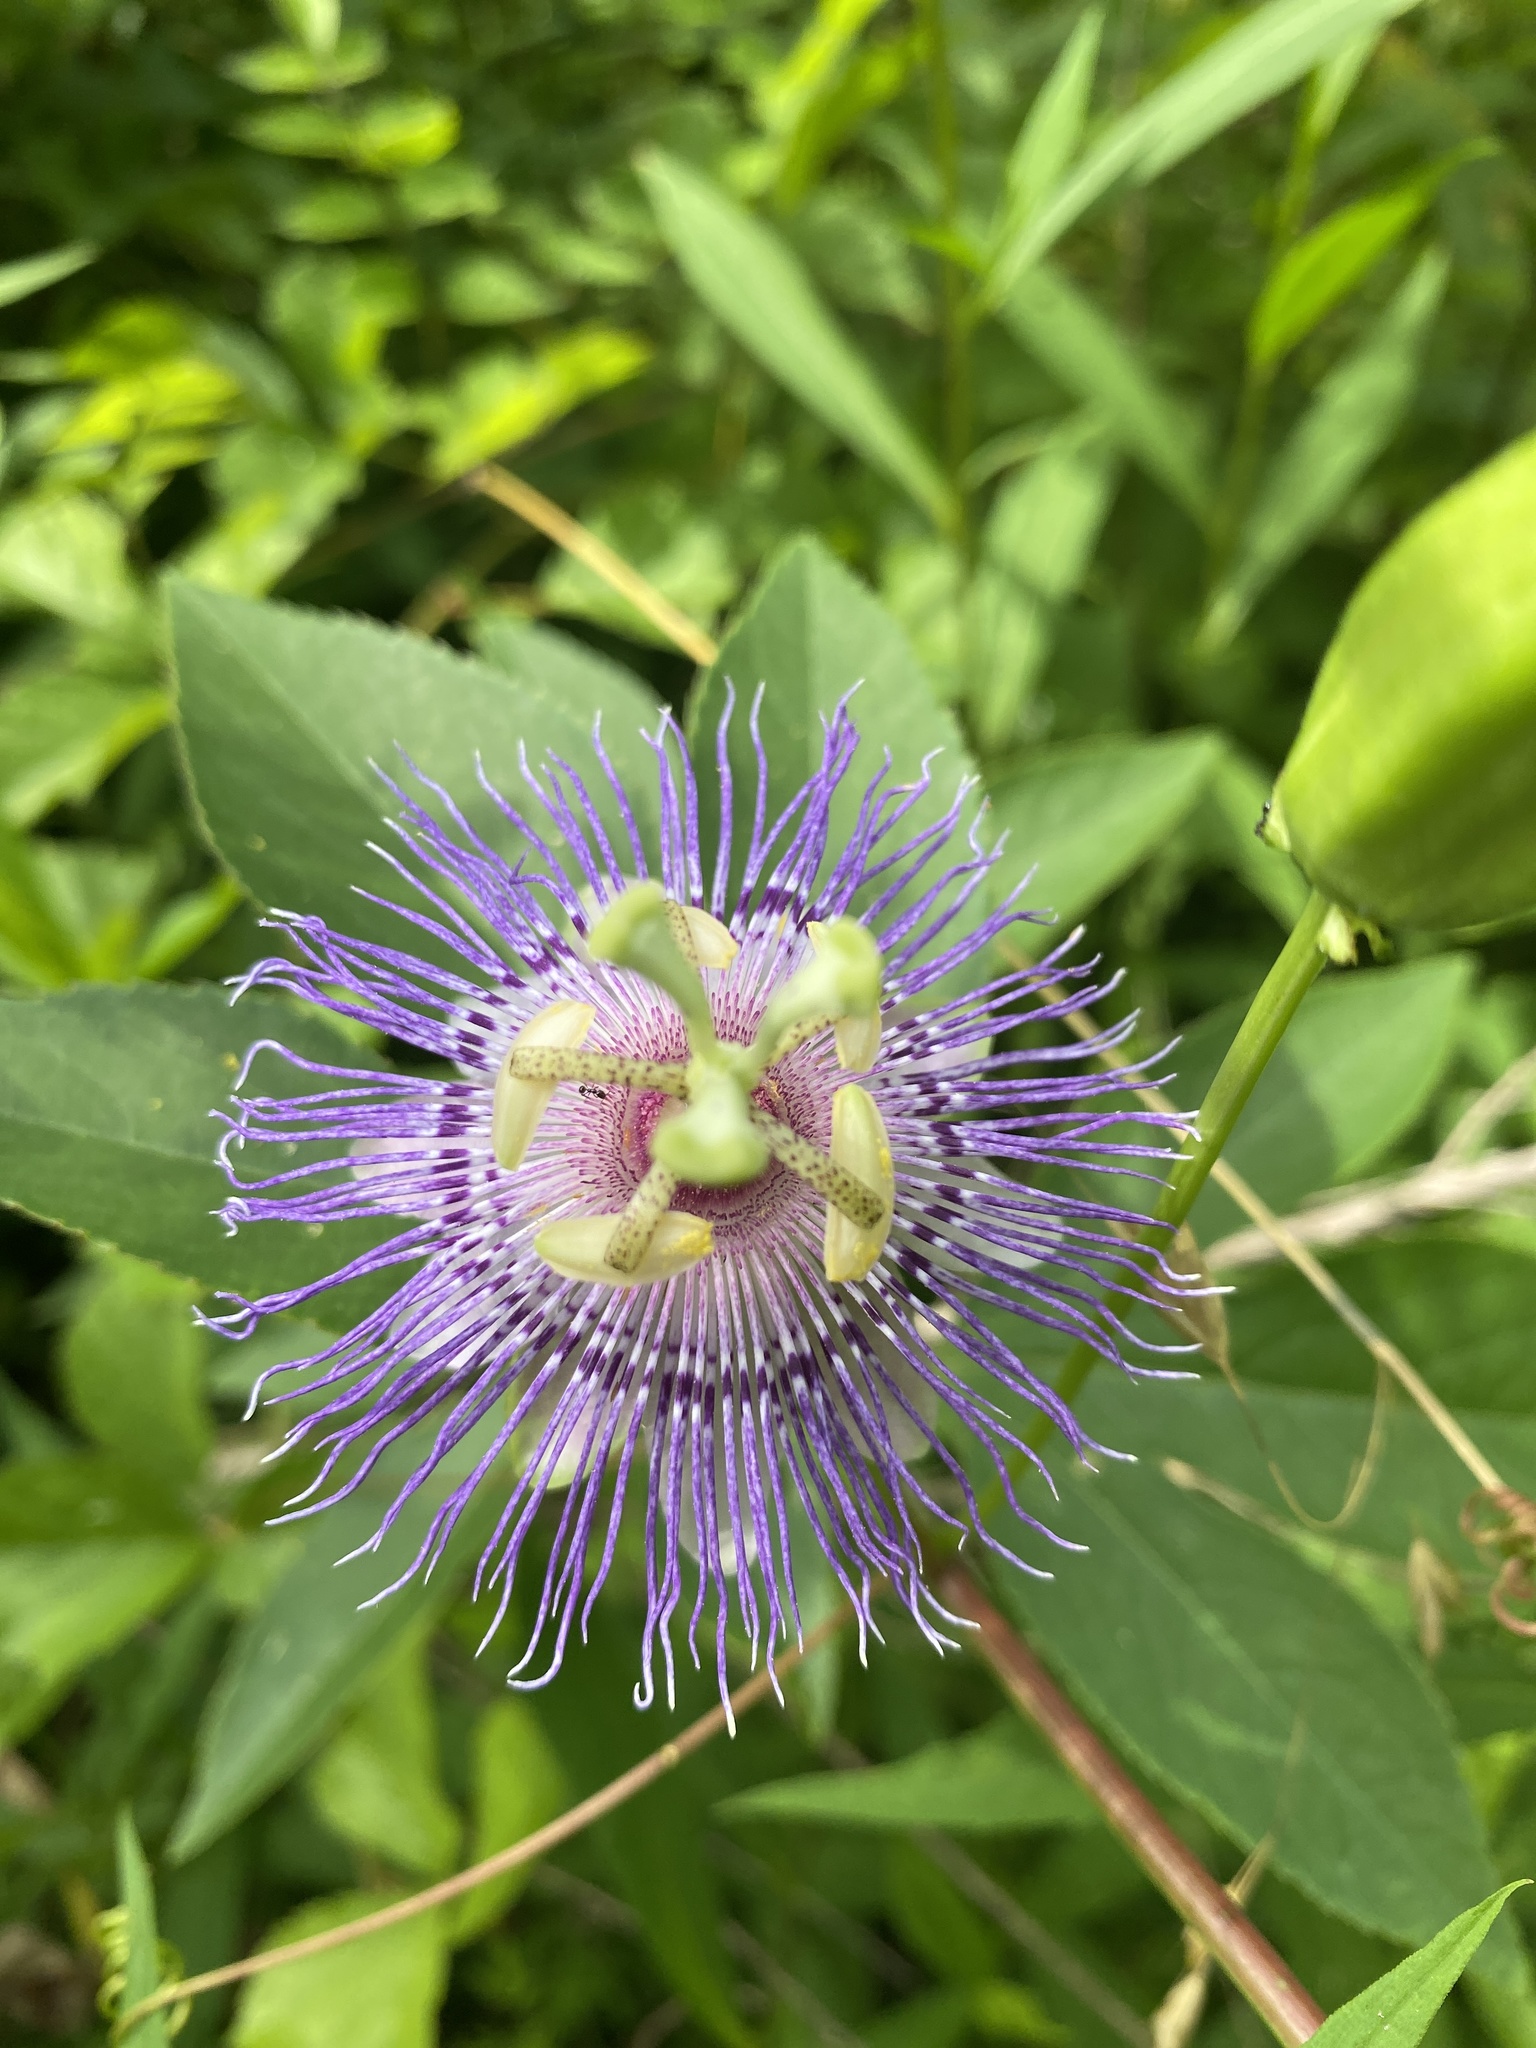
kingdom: Plantae
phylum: Tracheophyta
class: Magnoliopsida
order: Malpighiales
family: Passifloraceae
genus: Passiflora
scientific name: Passiflora incarnata
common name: Apricot-vine
